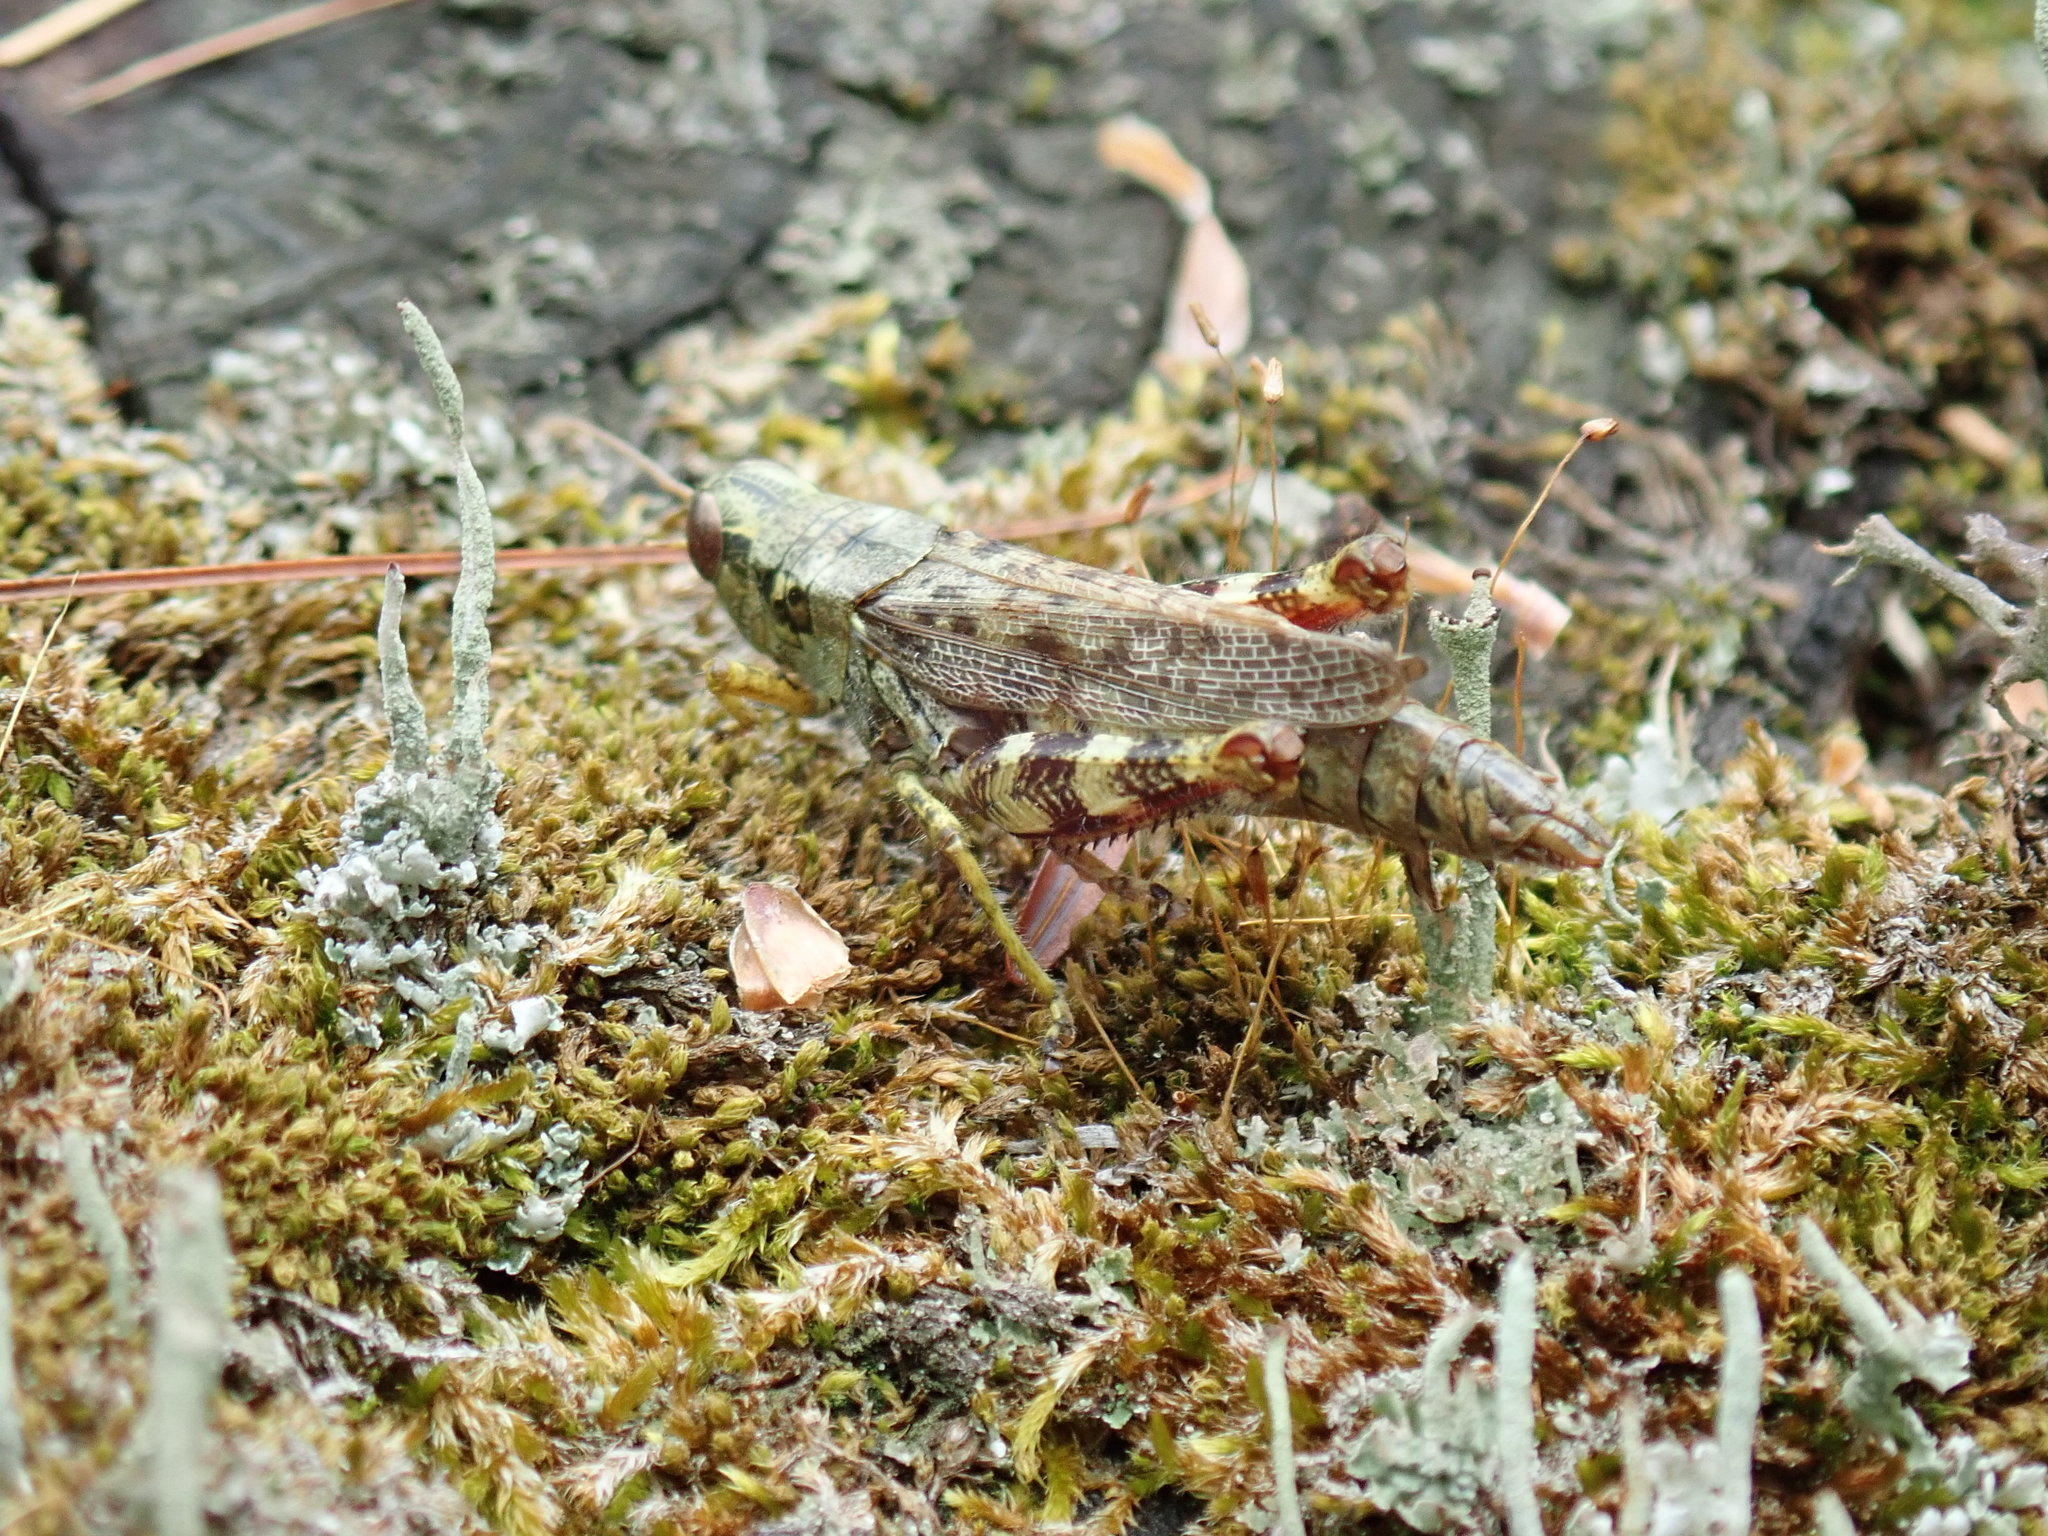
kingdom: Animalia
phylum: Arthropoda
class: Insecta
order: Orthoptera
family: Acrididae
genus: Melanoplus
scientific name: Melanoplus punctulatus
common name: Pine-tree spur-throat grasshopper
